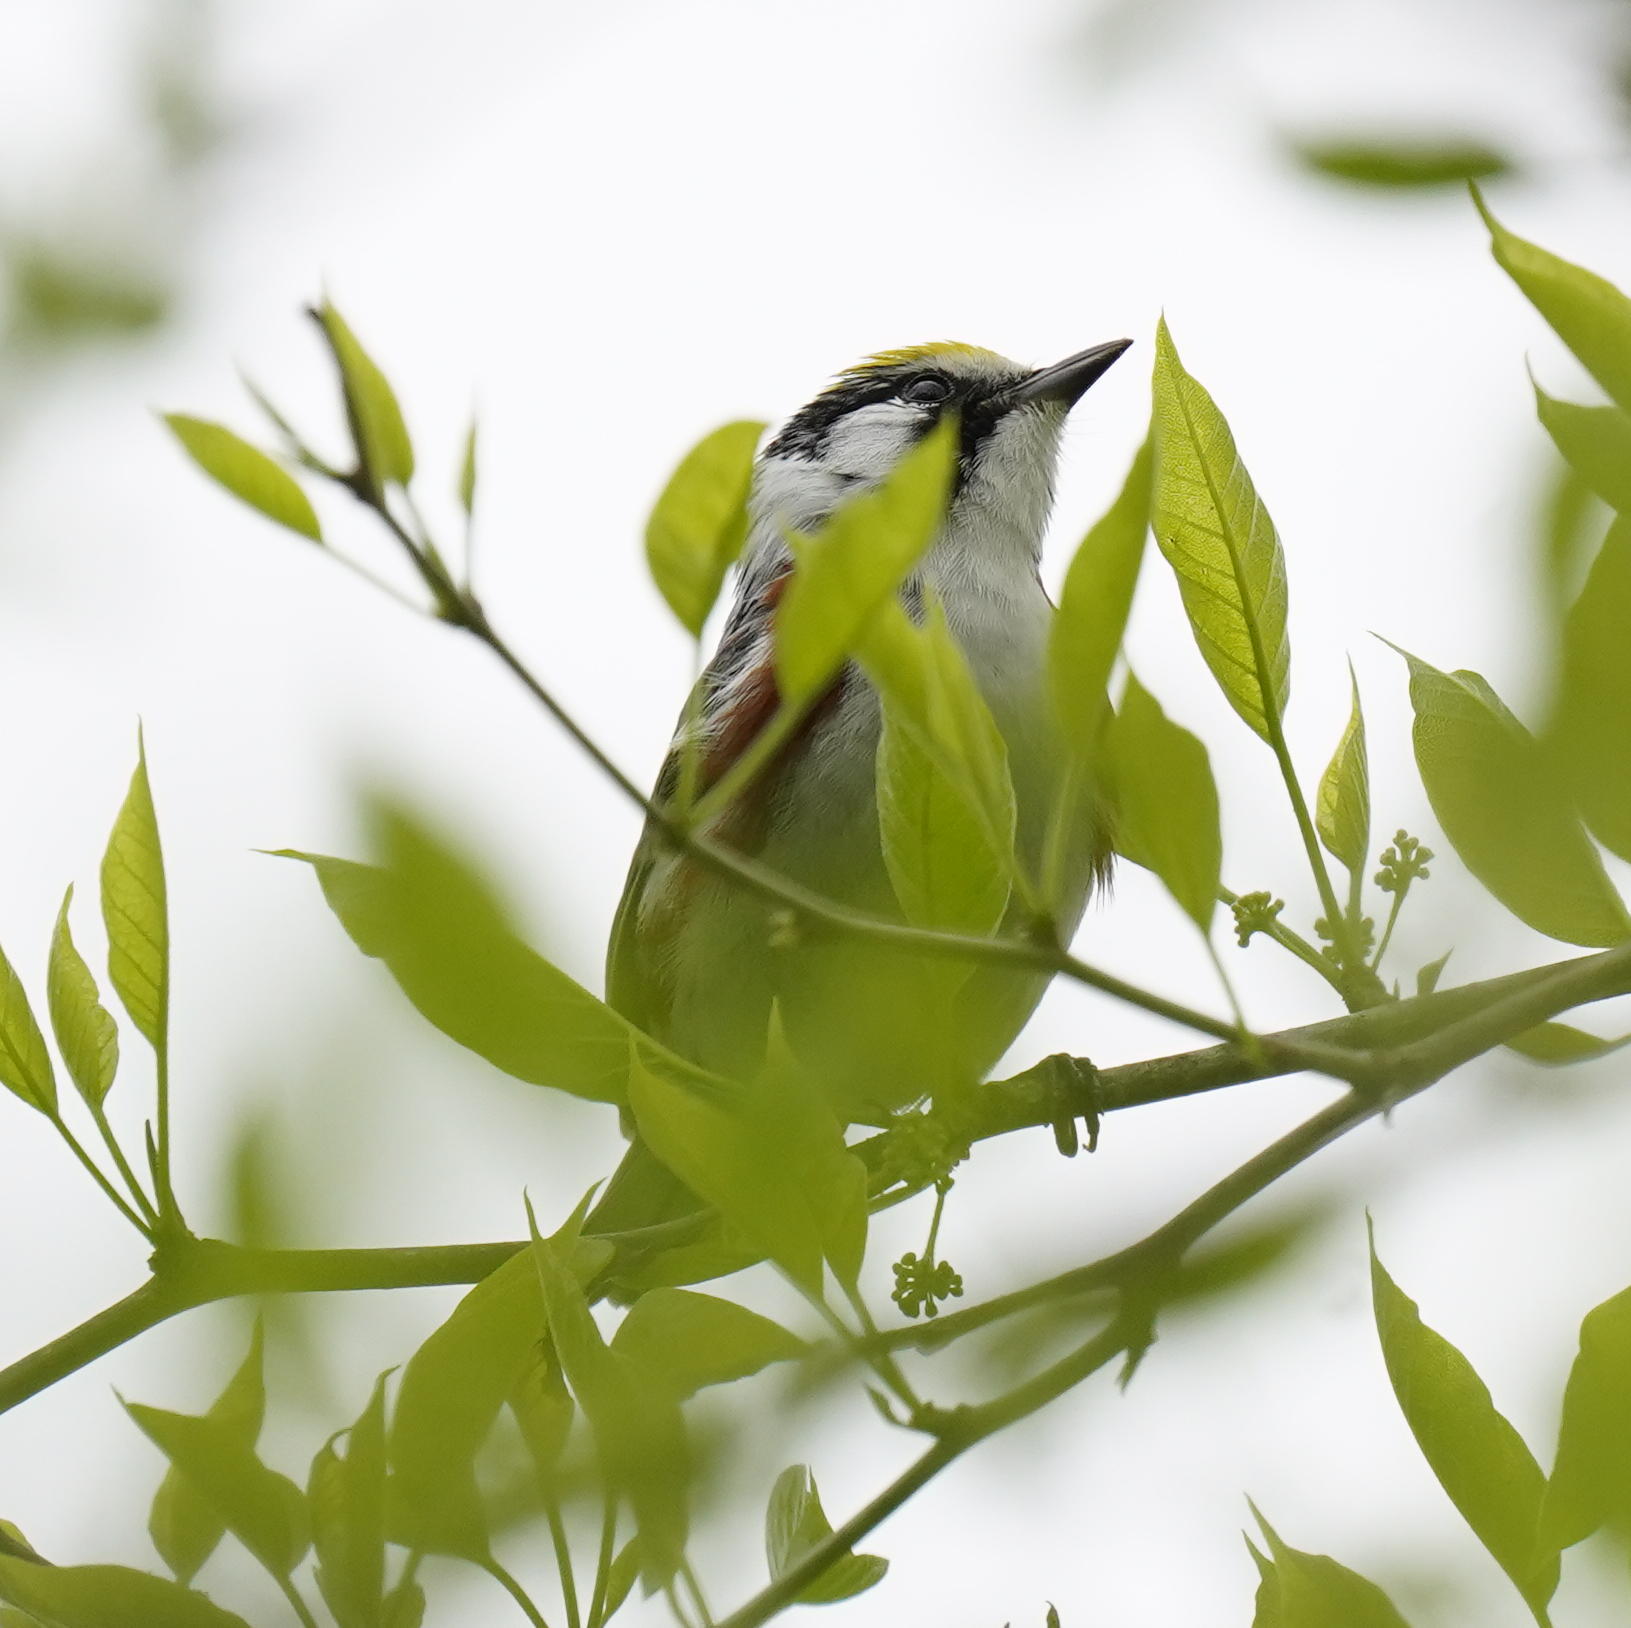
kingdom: Animalia
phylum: Chordata
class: Aves
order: Passeriformes
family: Parulidae
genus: Setophaga
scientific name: Setophaga pensylvanica
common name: Chestnut-sided warbler
